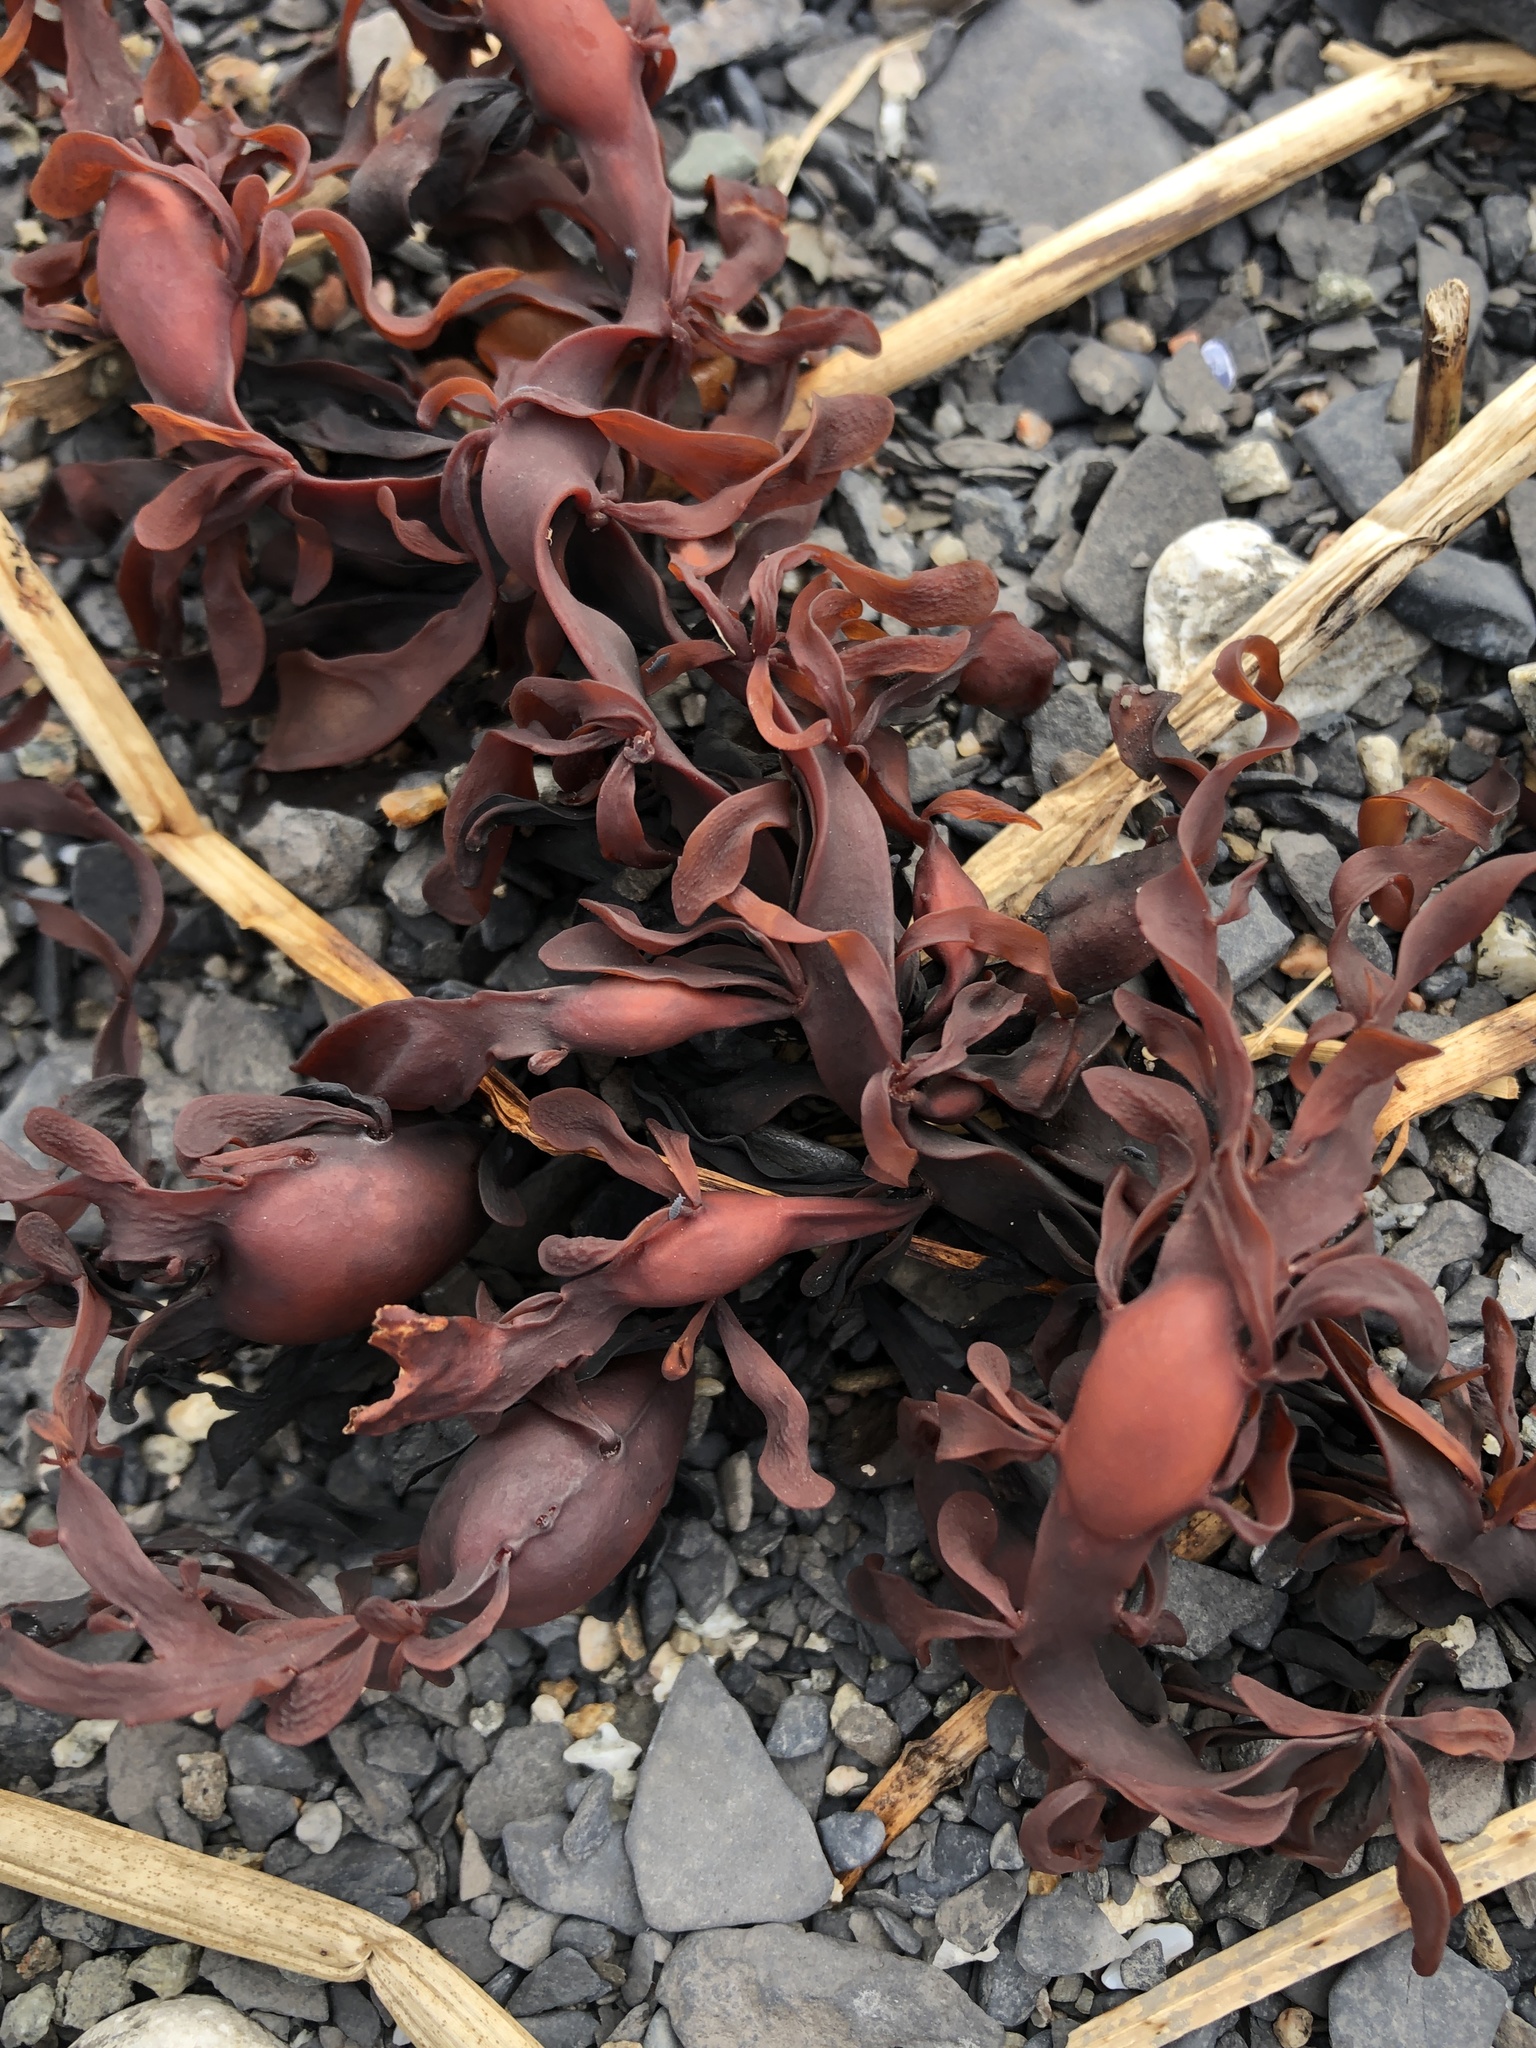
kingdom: Chromista
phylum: Ochrophyta
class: Phaeophyceae
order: Fucales
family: Fucaceae
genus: Ascophyllum
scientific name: Ascophyllum nodosum
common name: Knotted wrack
